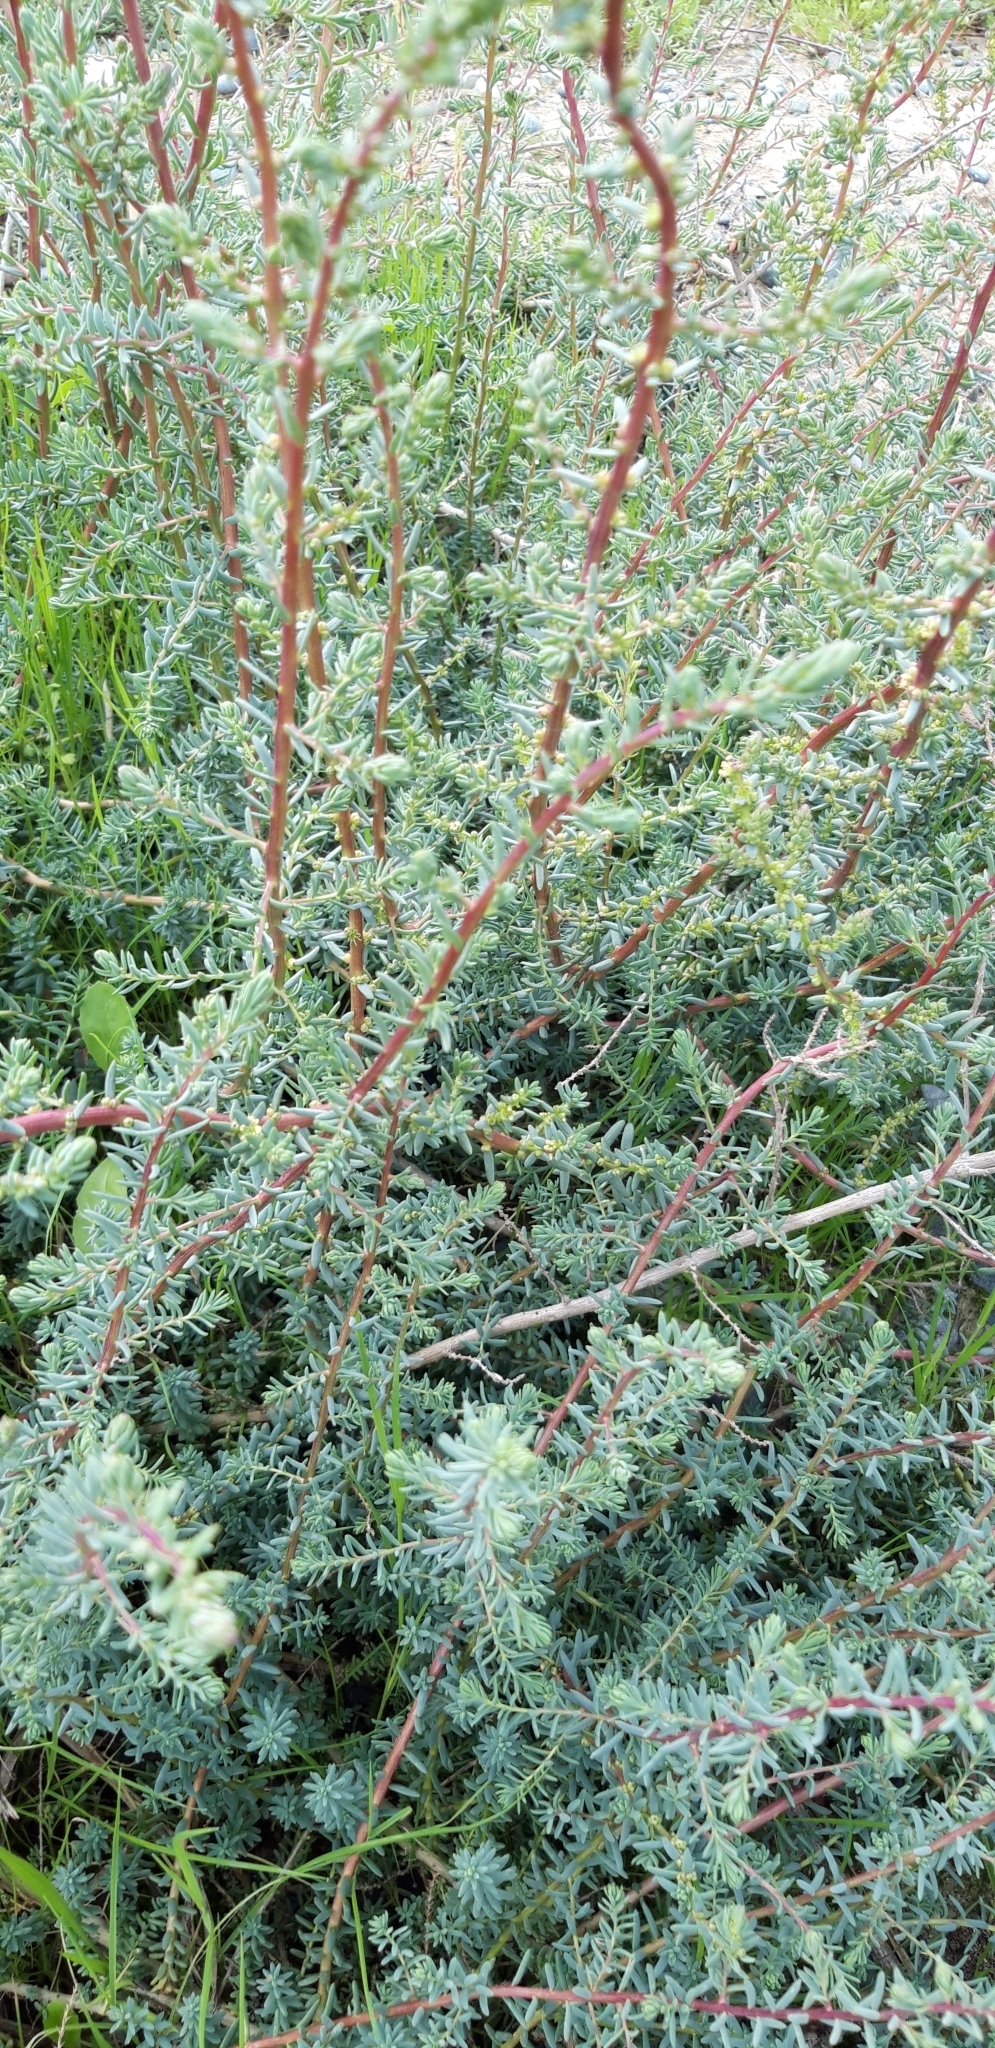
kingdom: Plantae
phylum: Tracheophyta
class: Magnoliopsida
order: Caryophyllales
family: Amaranthaceae
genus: Suaeda
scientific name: Suaeda vera
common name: Shrubby sea-blite
